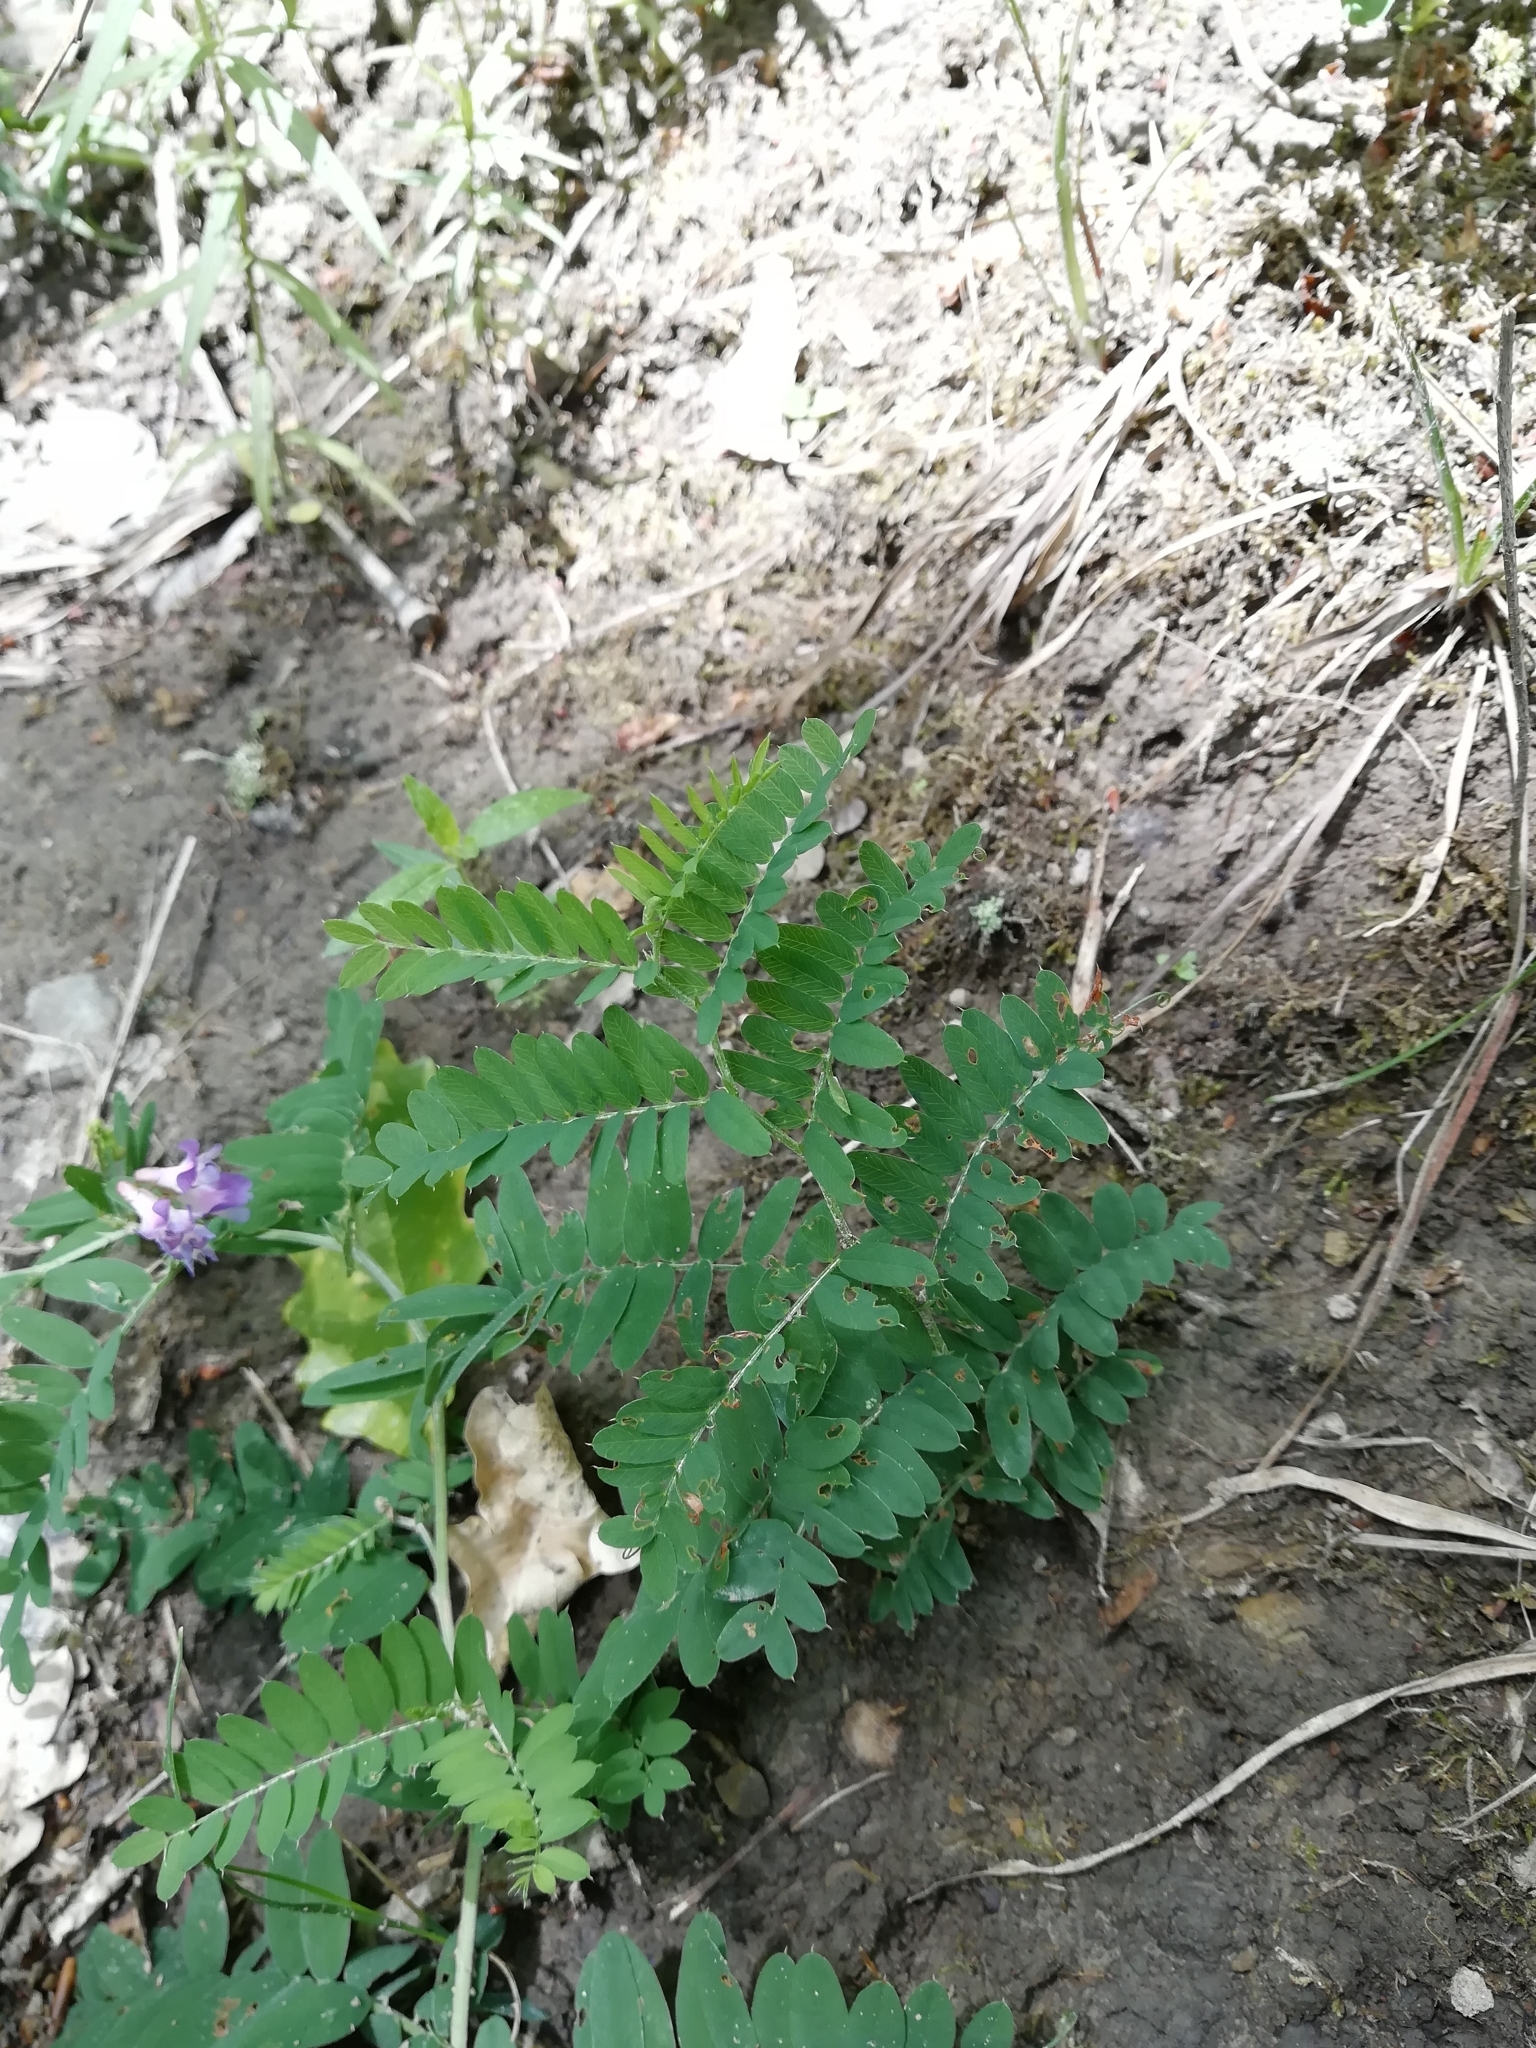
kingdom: Plantae
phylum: Tracheophyta
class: Magnoliopsida
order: Fabales
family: Fabaceae
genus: Vicia
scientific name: Vicia cassubica
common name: Danzig vetch
